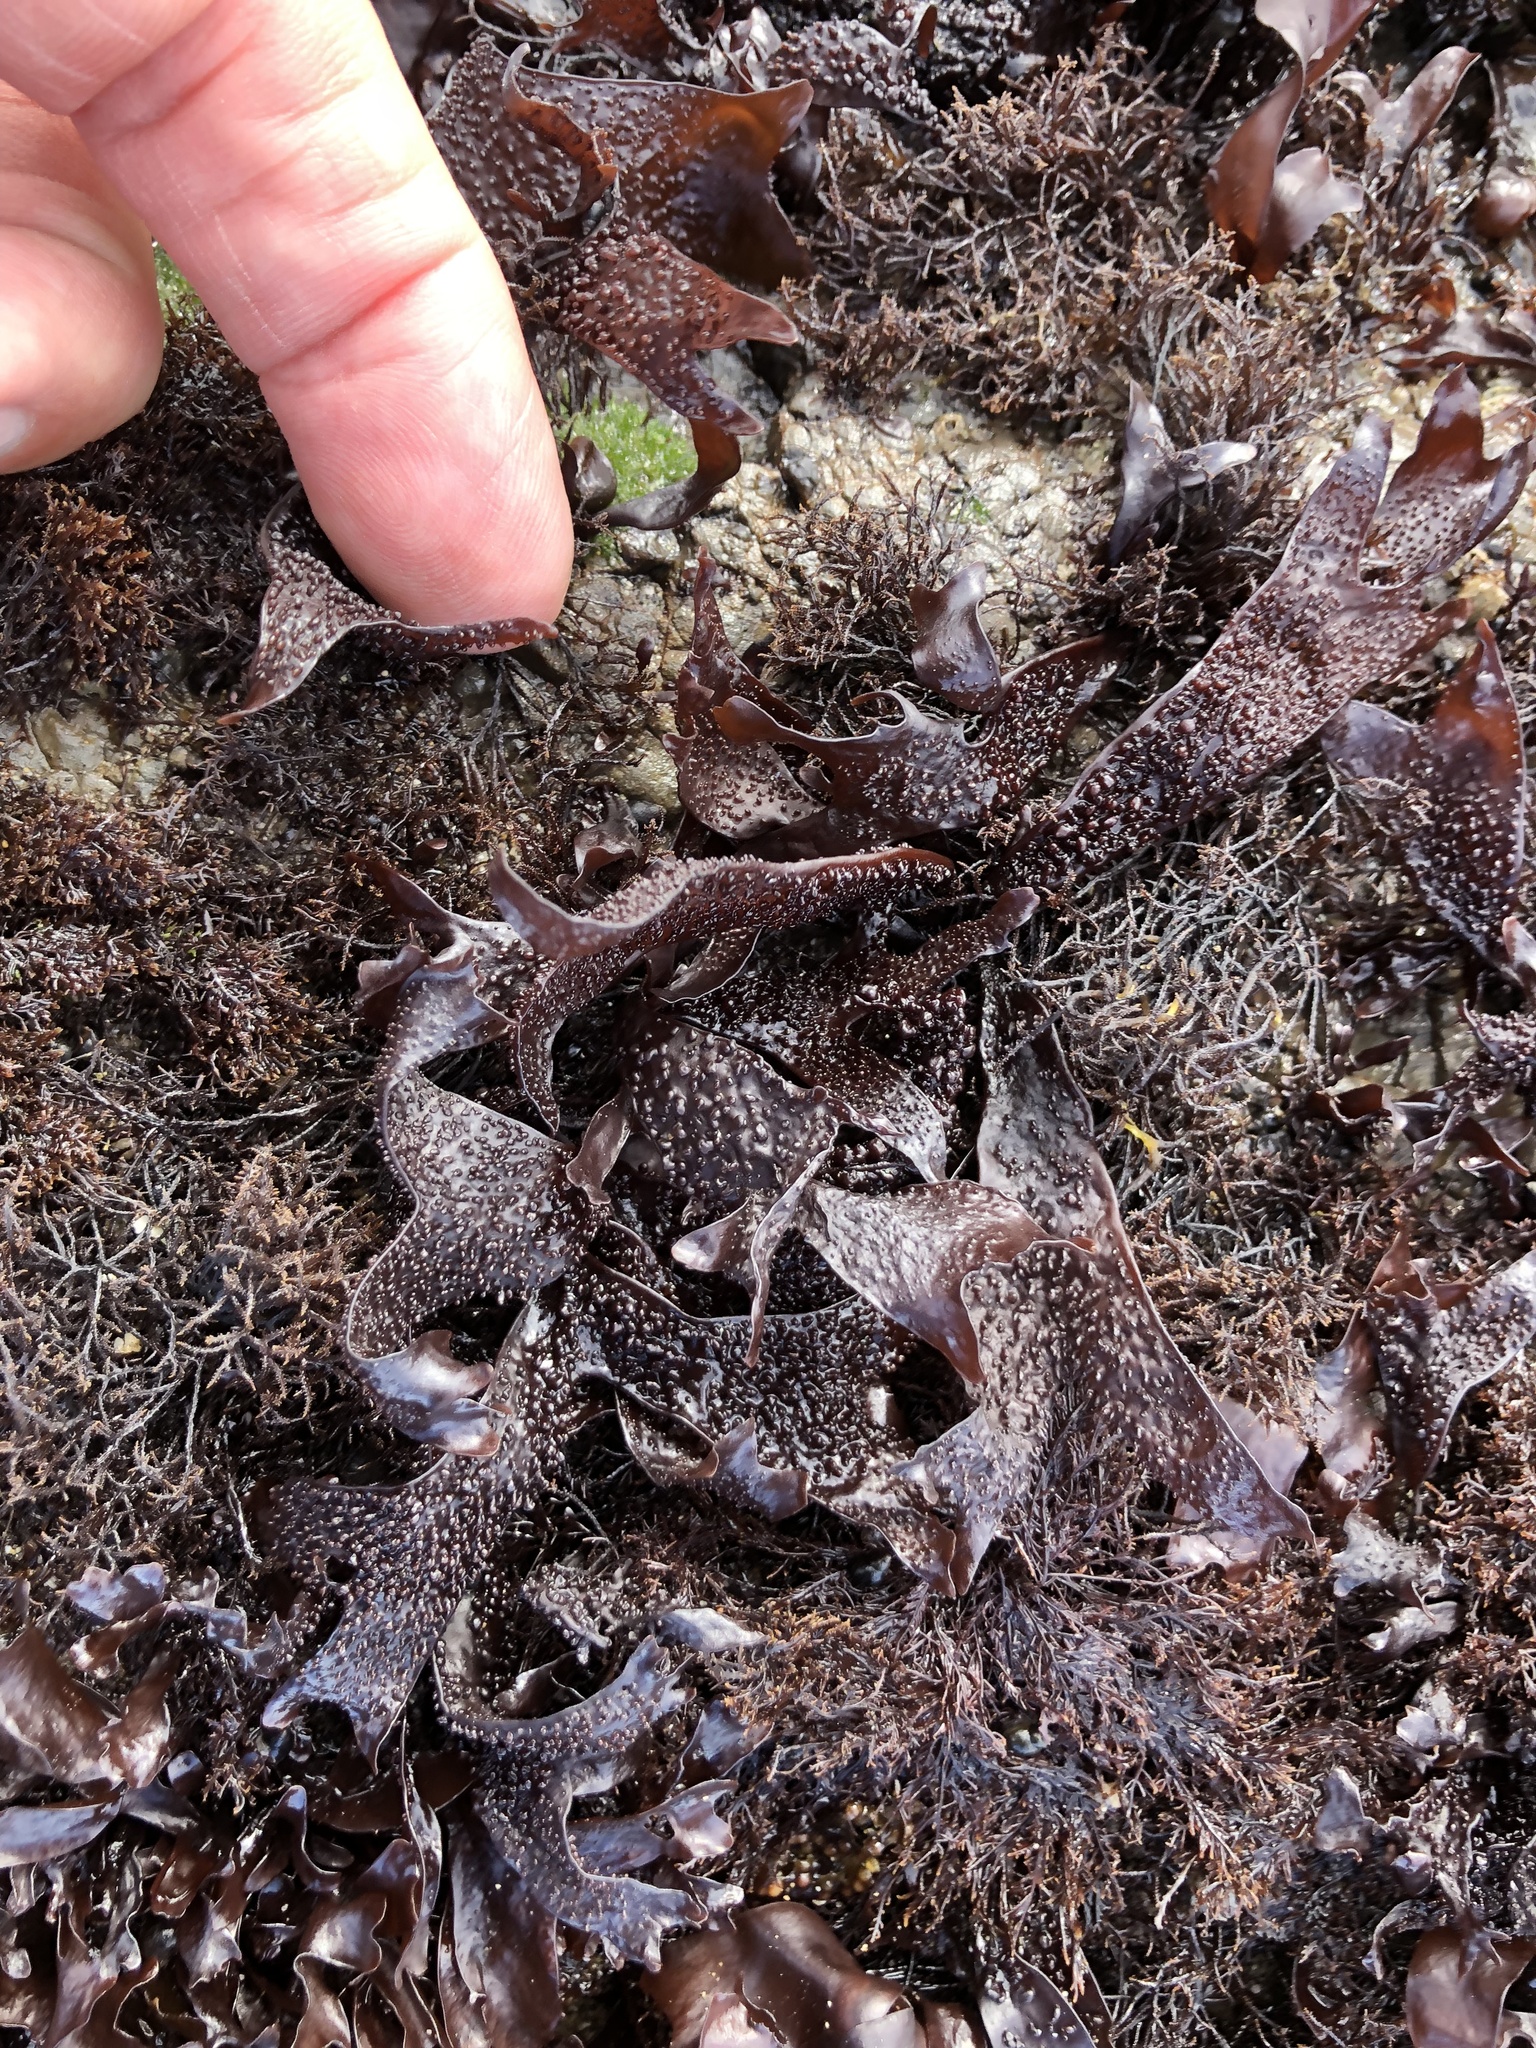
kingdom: Plantae
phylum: Rhodophyta
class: Florideophyceae
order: Gigartinales
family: Phyllophoraceae
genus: Mastocarpus
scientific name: Mastocarpus papillatus
